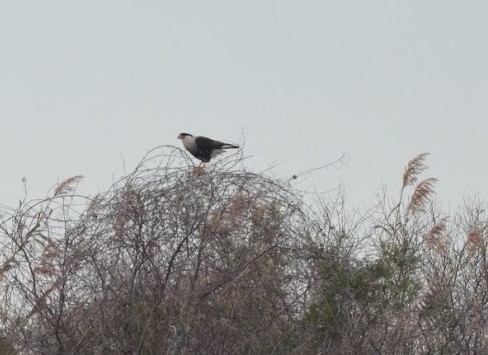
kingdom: Animalia
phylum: Chordata
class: Aves
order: Falconiformes
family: Falconidae
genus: Caracara
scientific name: Caracara plancus
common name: Southern caracara
